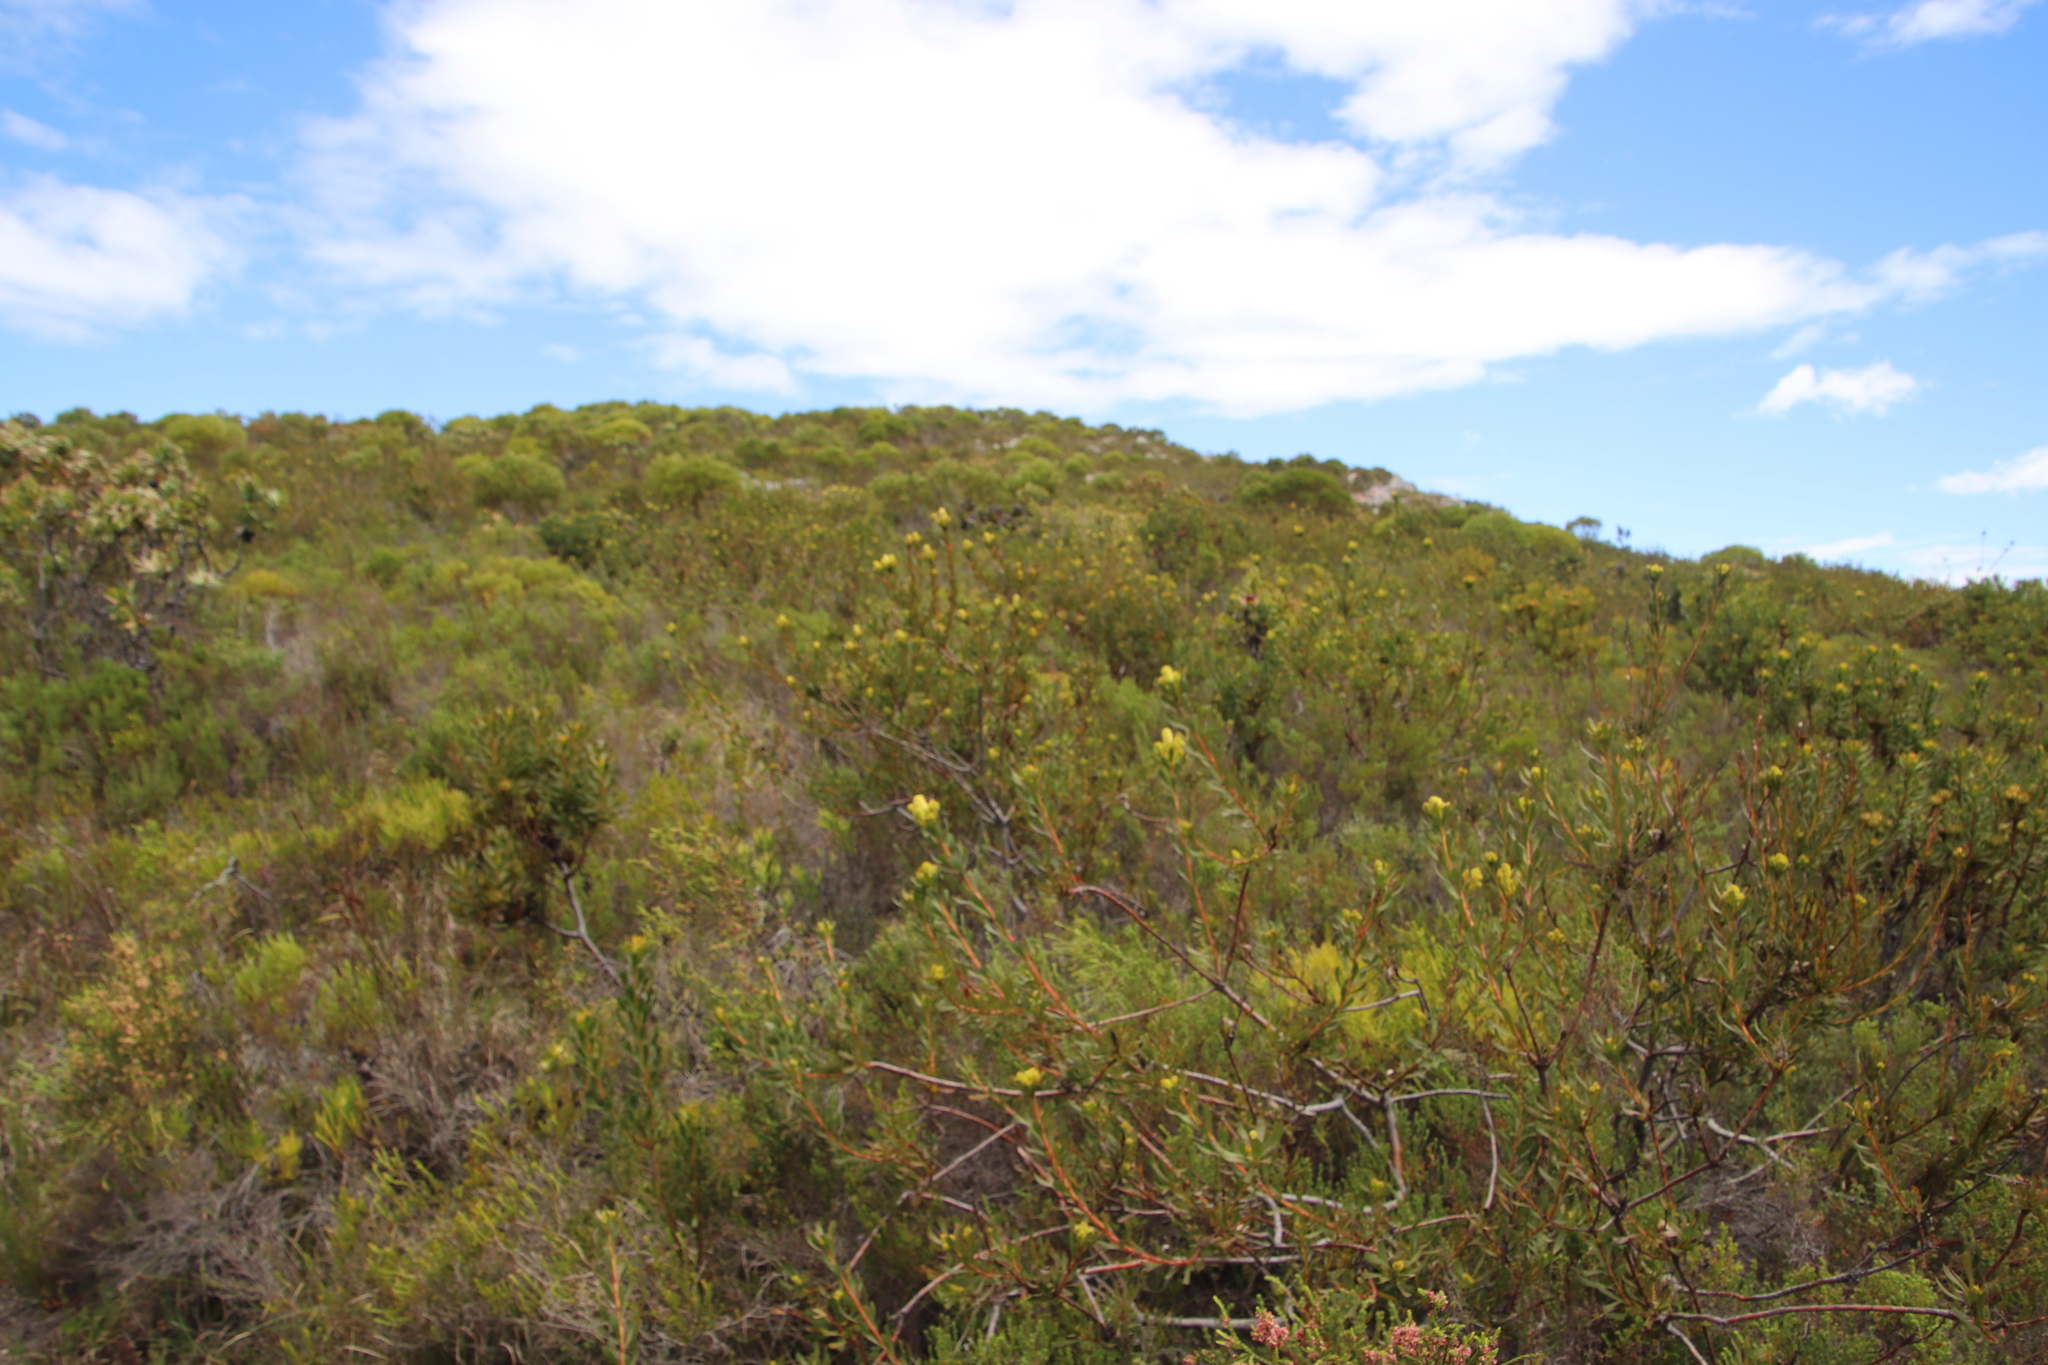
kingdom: Plantae
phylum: Tracheophyta
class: Magnoliopsida
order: Proteales
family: Proteaceae
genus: Aulax
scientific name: Aulax umbellata
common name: Broad-leaf featherbush
